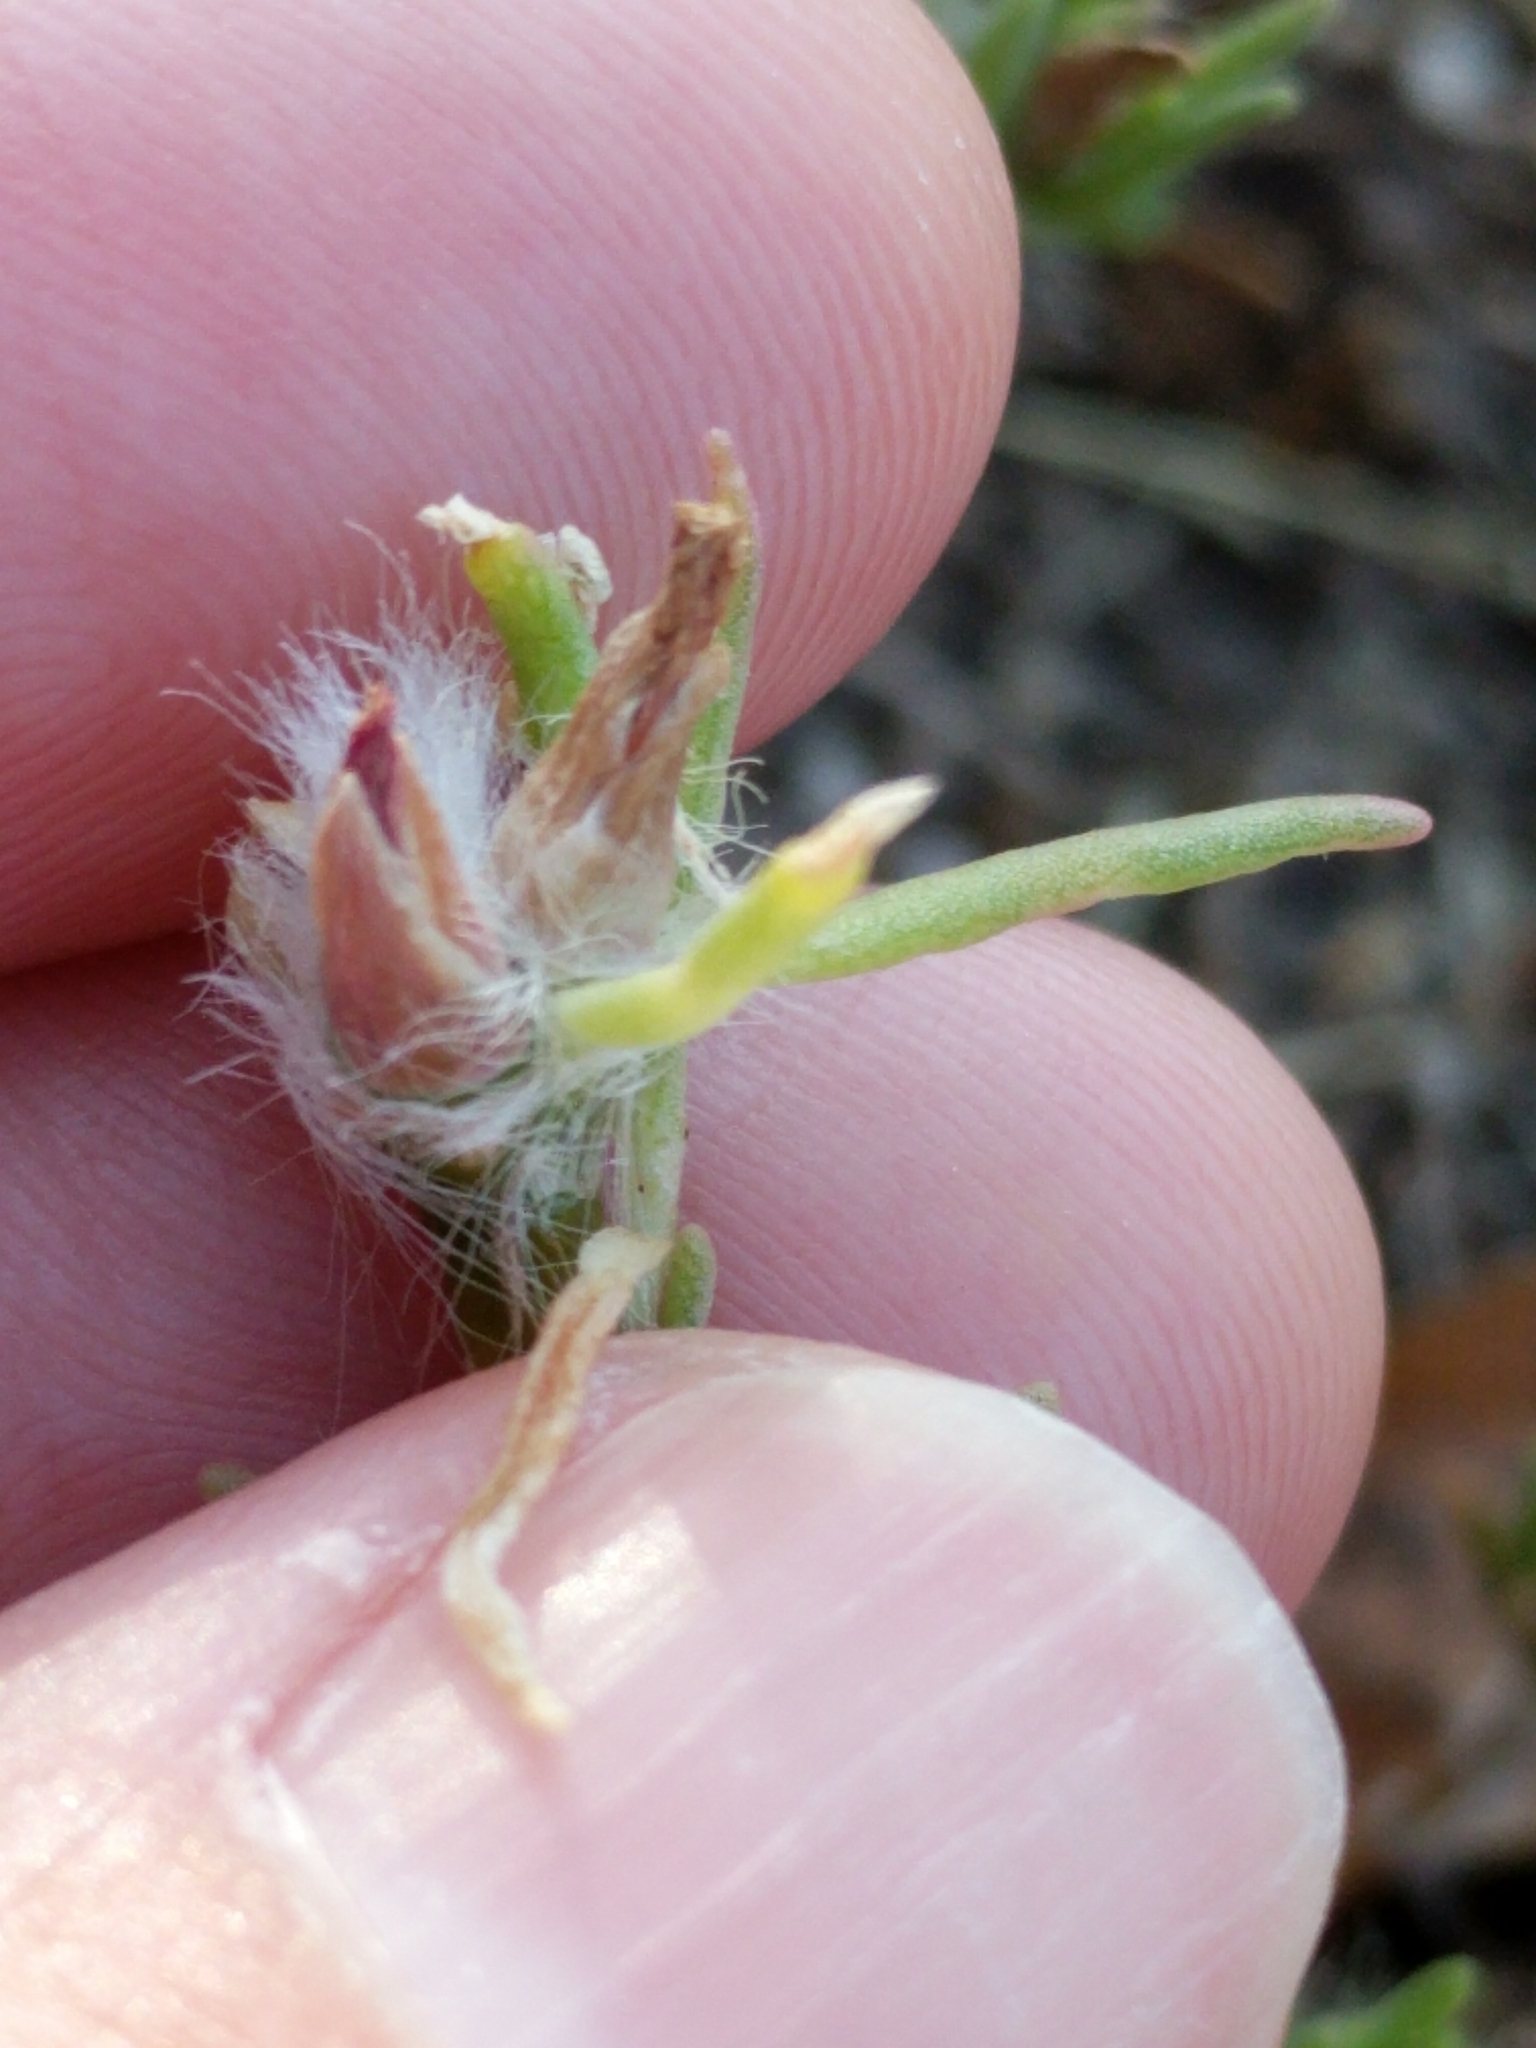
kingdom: Plantae
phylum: Tracheophyta
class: Magnoliopsida
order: Caryophyllales
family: Portulacaceae
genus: Portulaca
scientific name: Portulaca pilosa
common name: Kiss me quick
